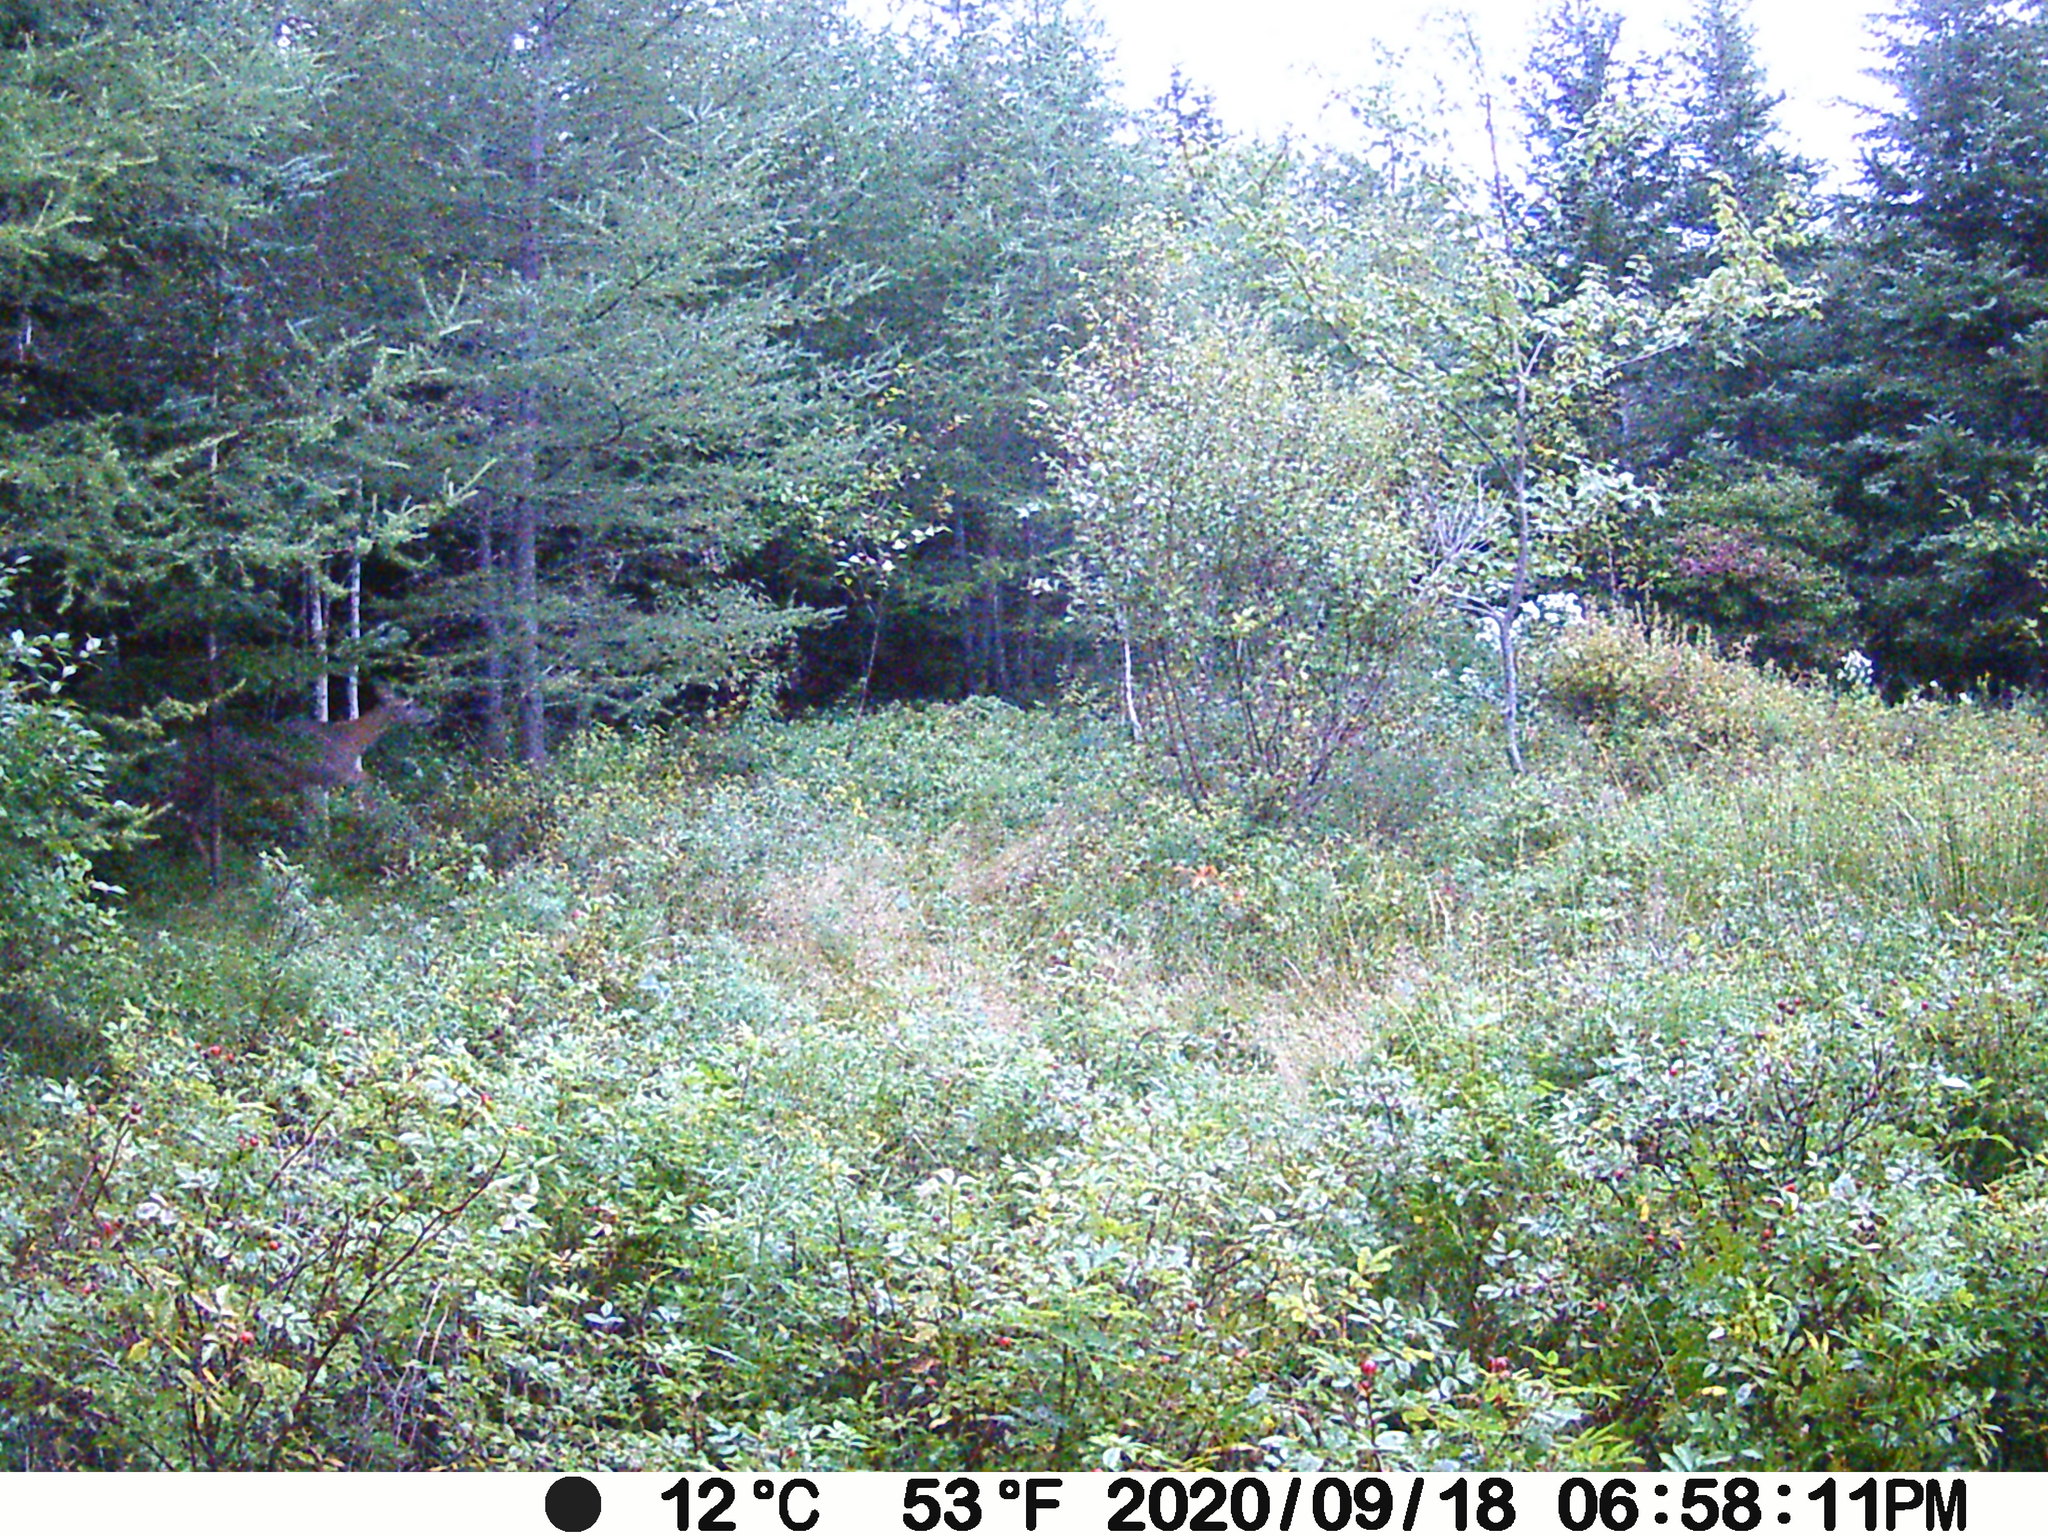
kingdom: Animalia
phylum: Chordata
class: Mammalia
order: Artiodactyla
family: Cervidae
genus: Odocoileus
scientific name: Odocoileus virginianus
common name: White-tailed deer
